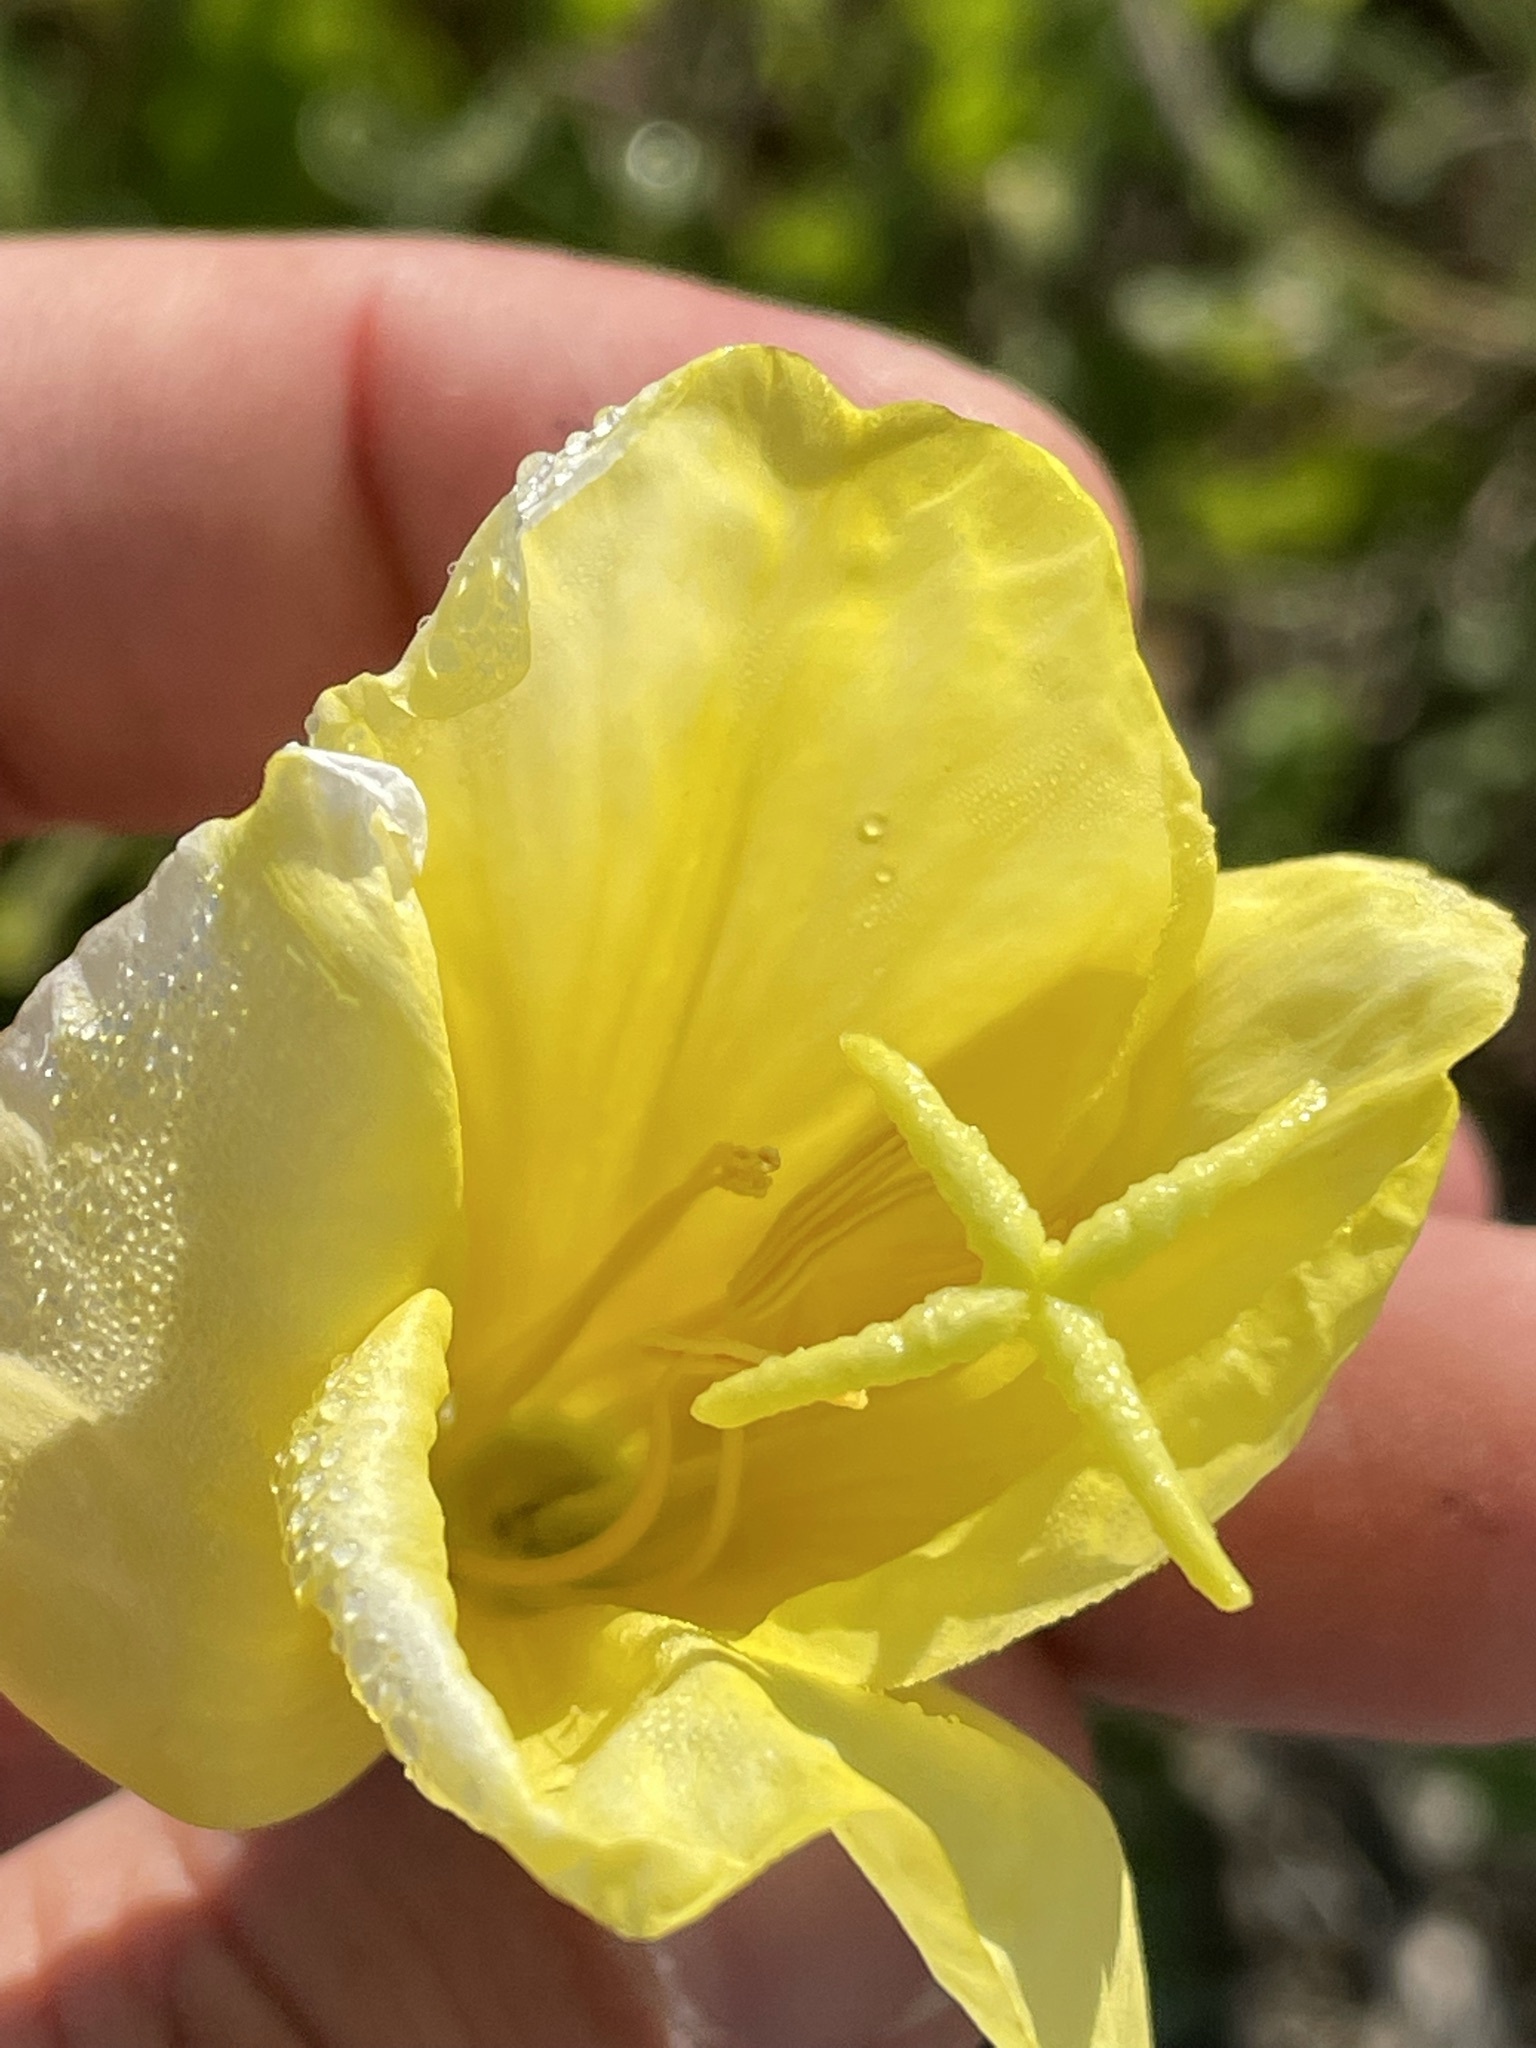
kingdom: Plantae
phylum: Tracheophyta
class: Magnoliopsida
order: Myrtales
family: Onagraceae
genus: Oenothera
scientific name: Oenothera glazioviana
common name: Large-flowered evening-primrose
